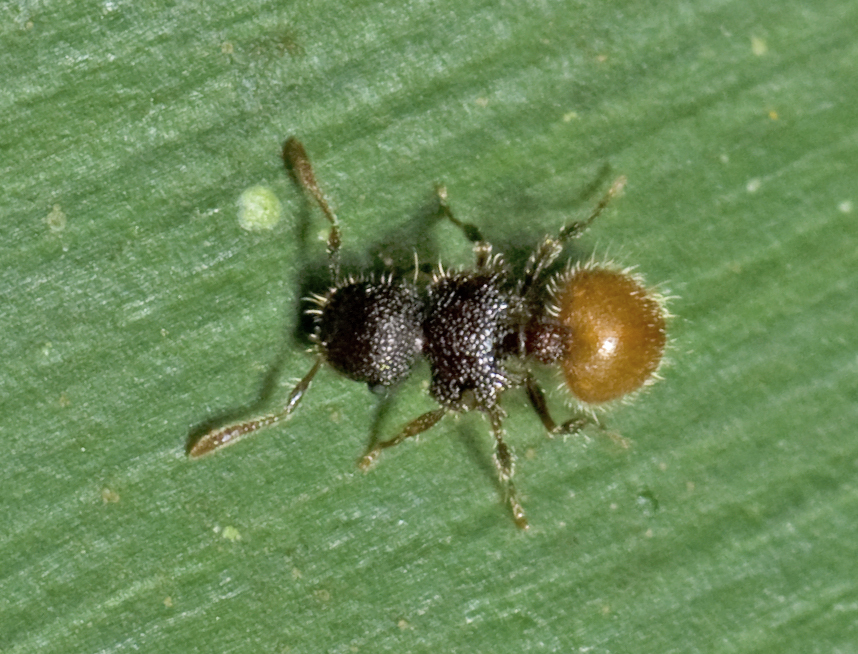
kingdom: Animalia
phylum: Arthropoda
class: Insecta
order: Hymenoptera
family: Formicidae
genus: Meranoplus
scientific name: Meranoplus hirsutus
